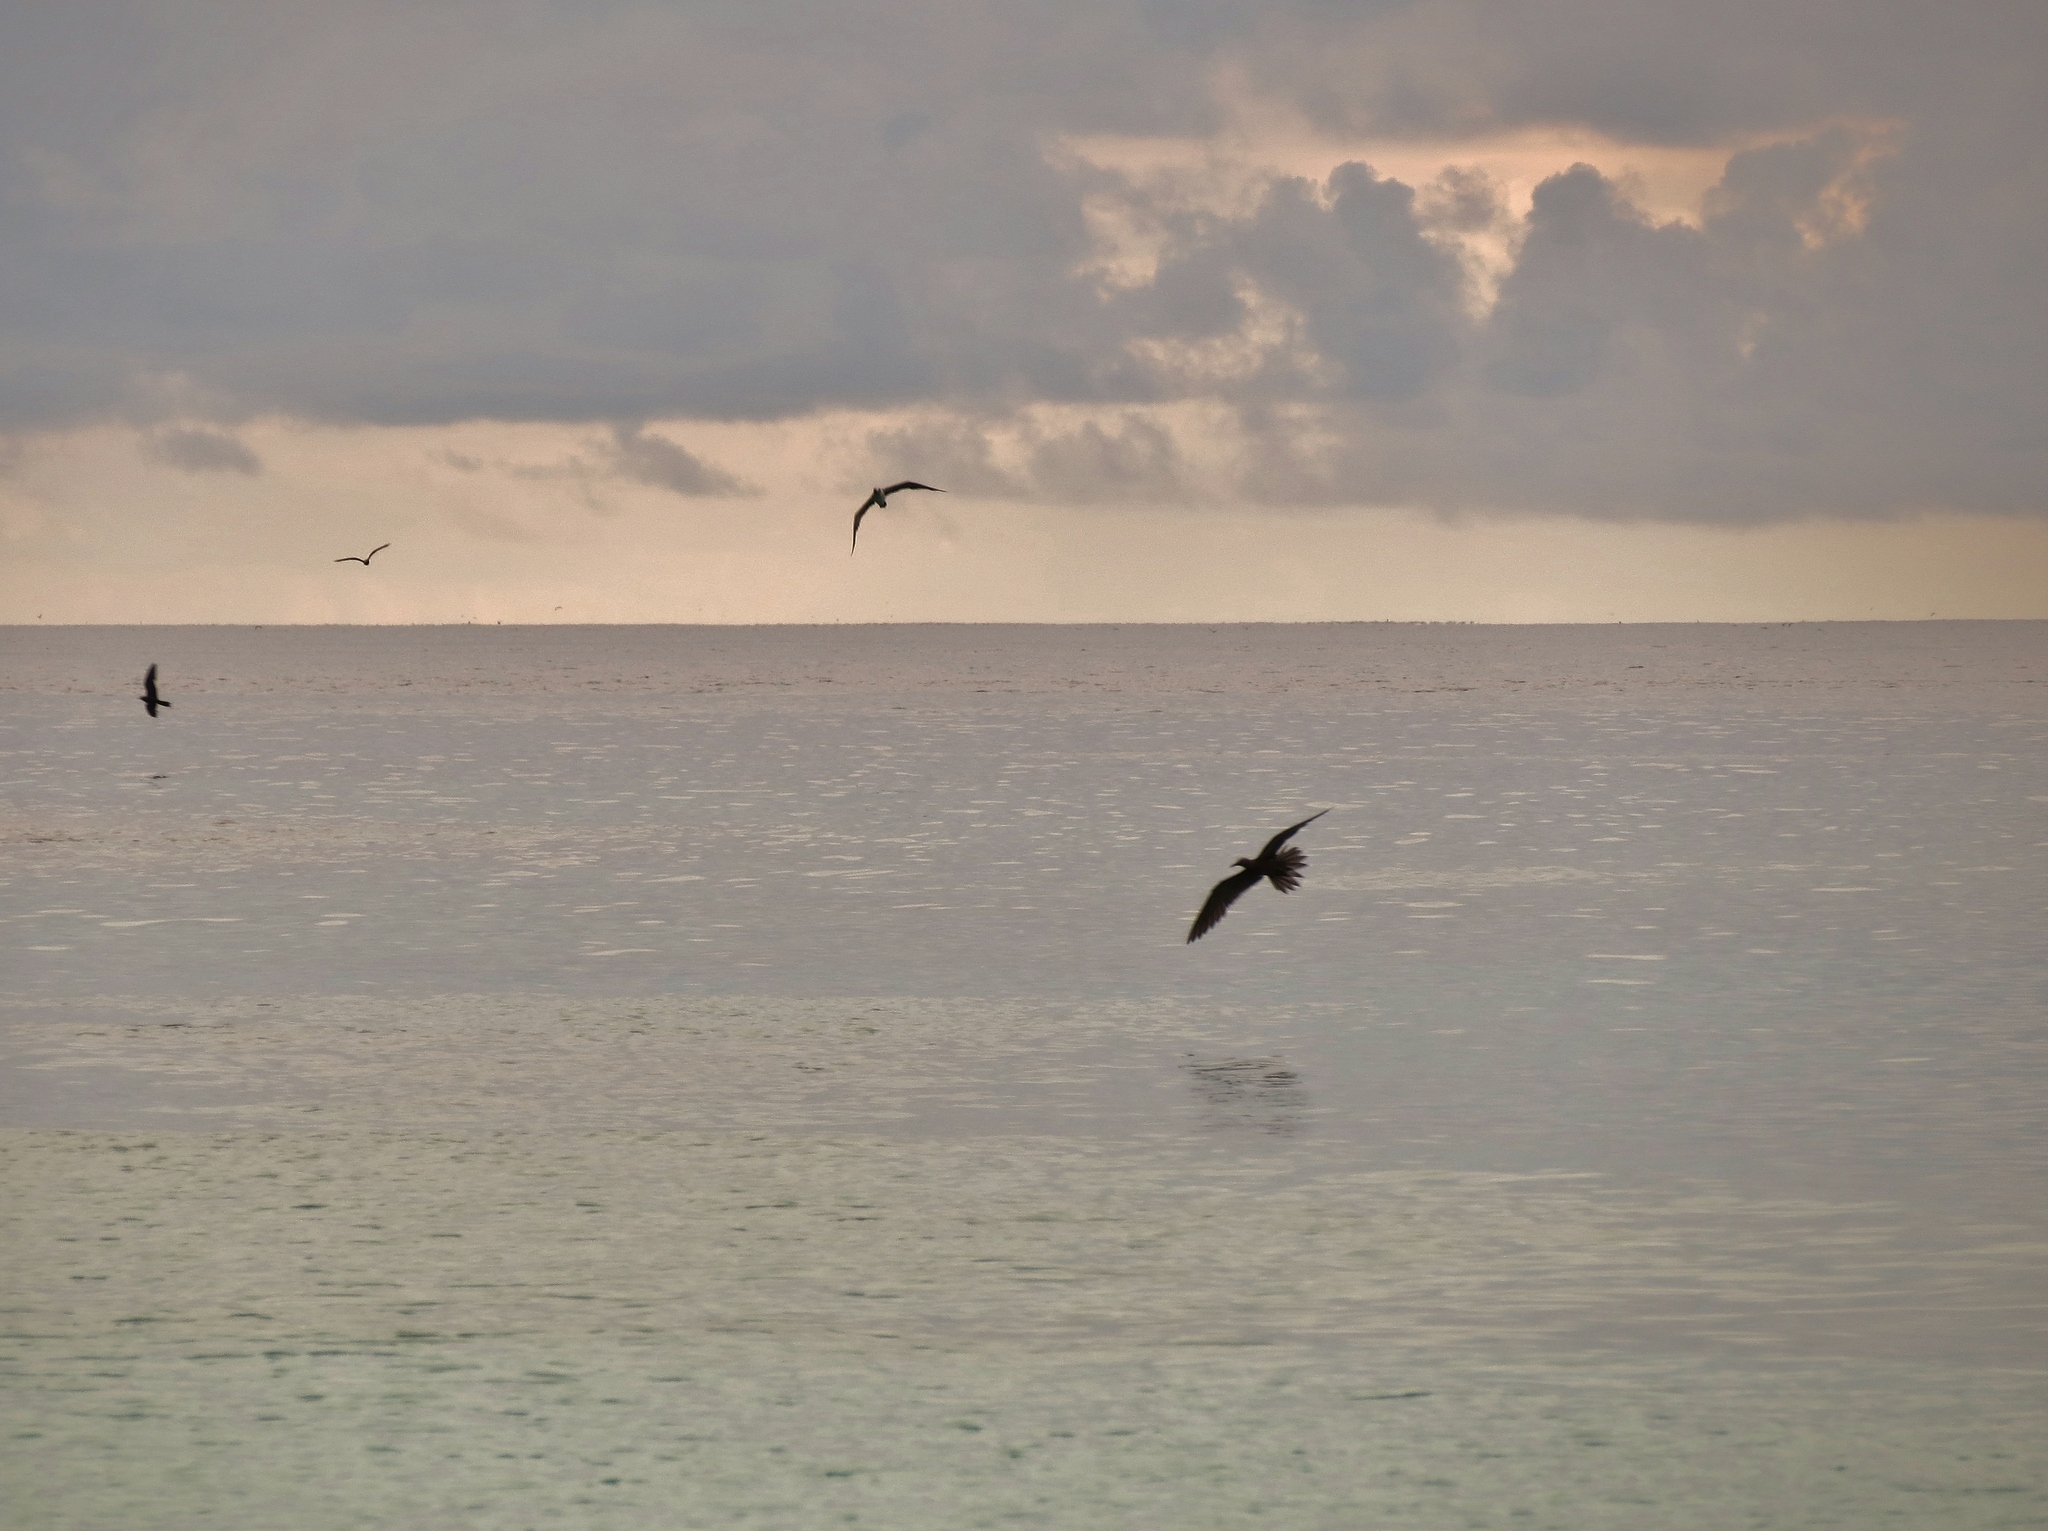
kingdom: Animalia
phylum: Chordata
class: Aves
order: Charadriiformes
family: Laridae
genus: Anous
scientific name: Anous stolidus
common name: Brown noddy
